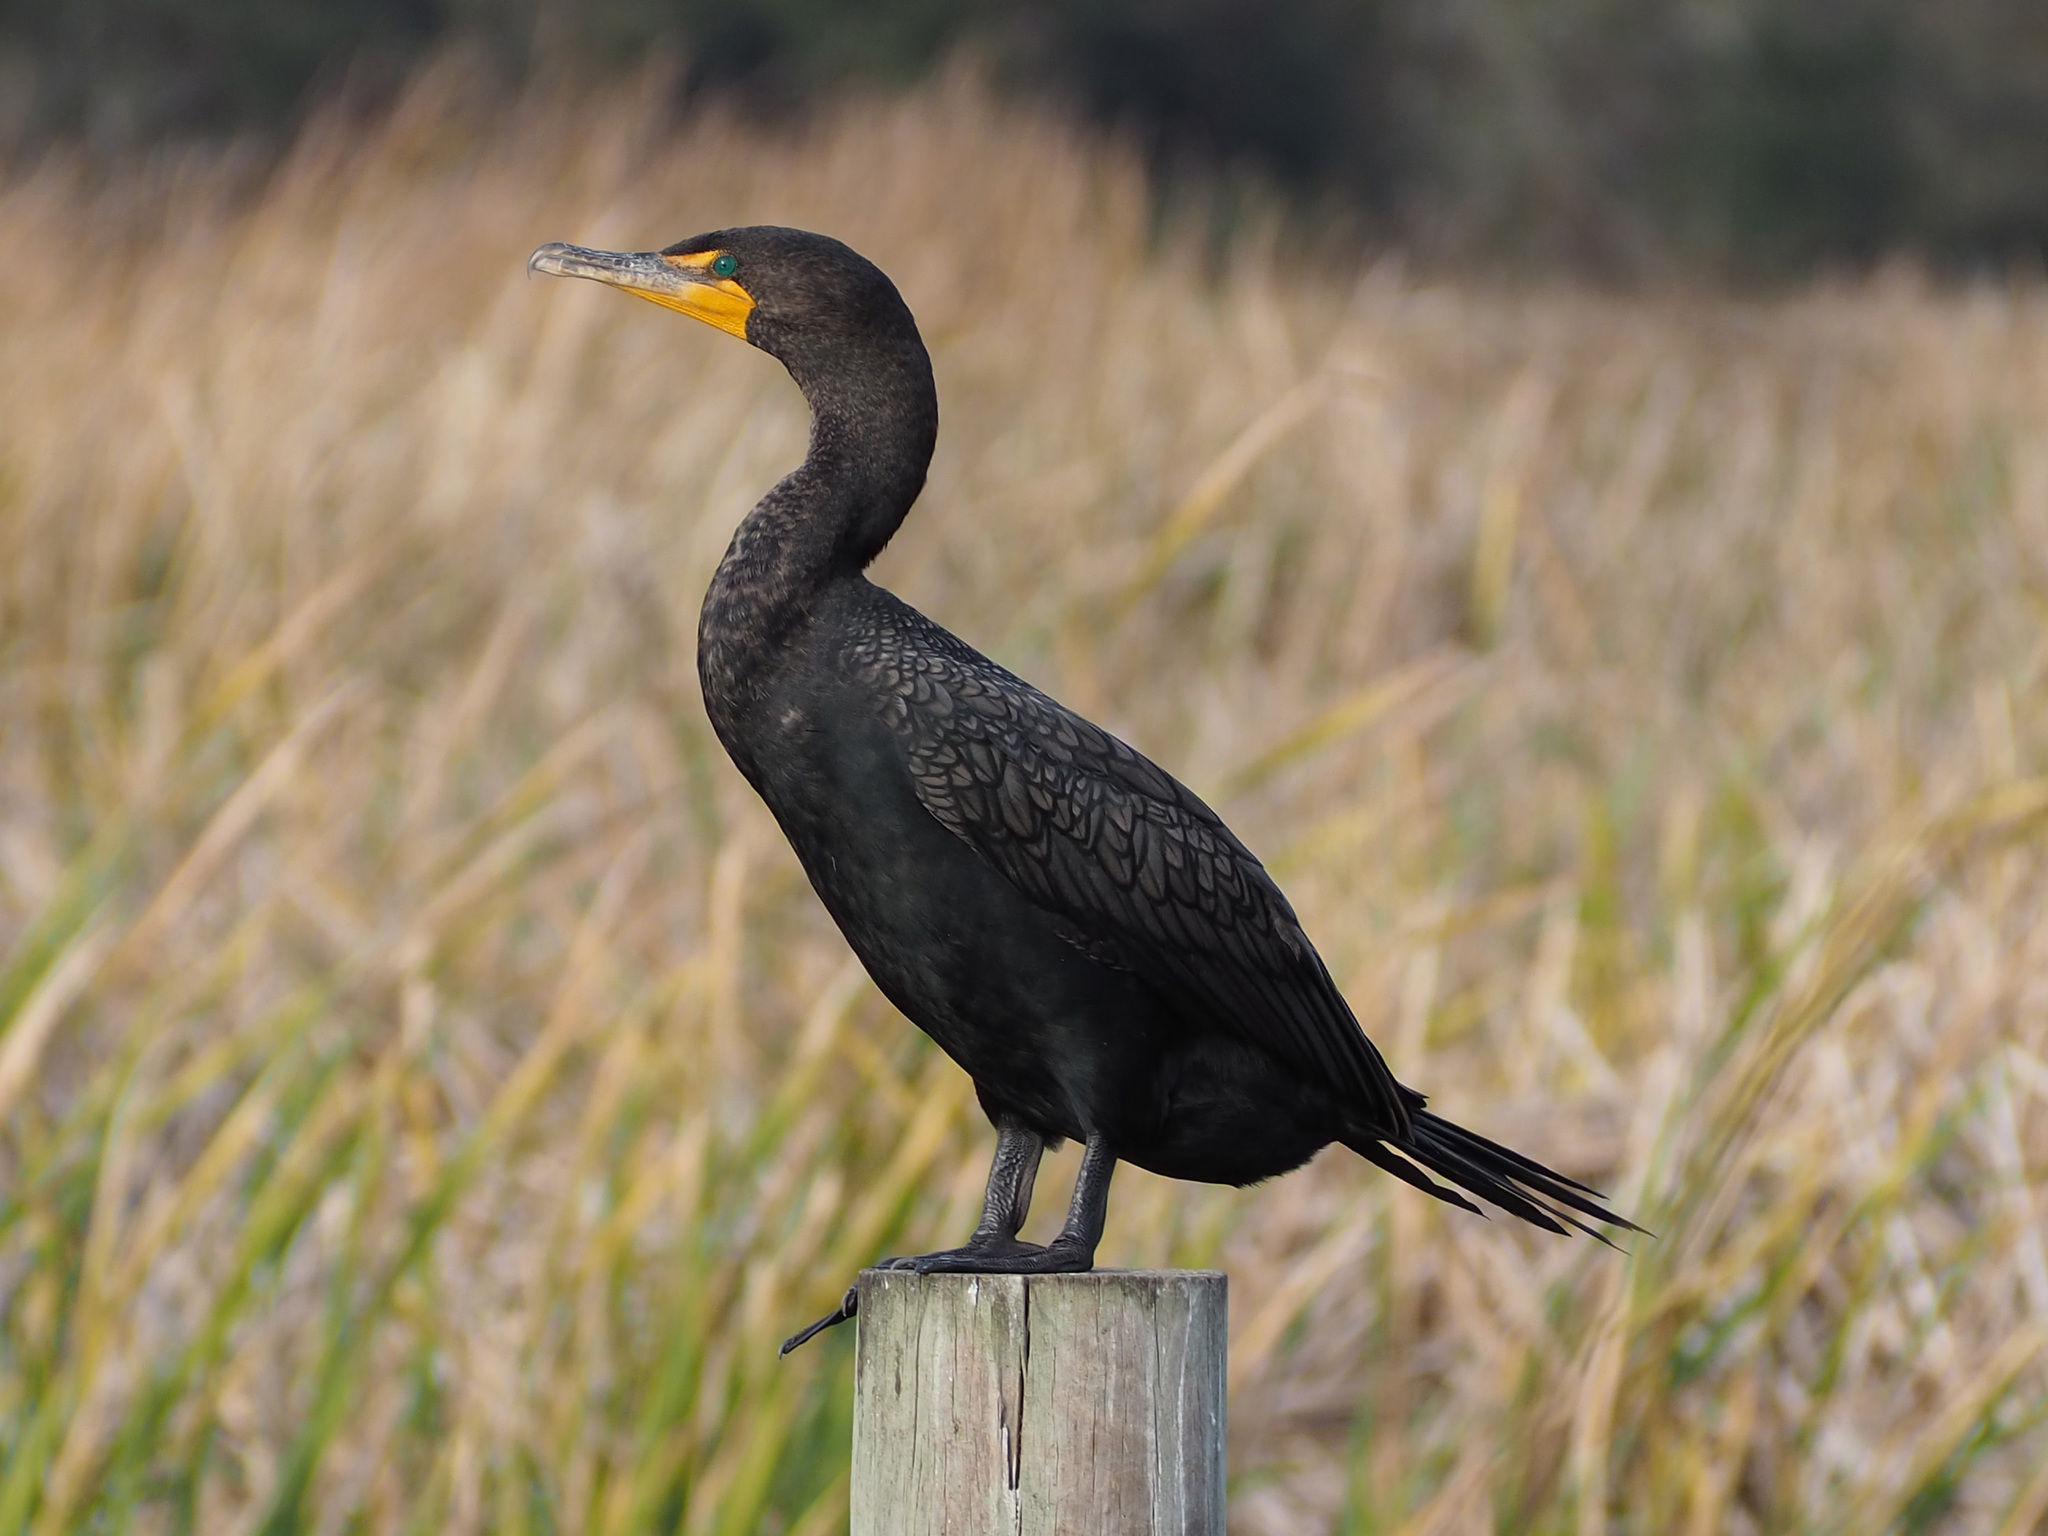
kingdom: Animalia
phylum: Chordata
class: Aves
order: Suliformes
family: Phalacrocoracidae
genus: Phalacrocorax
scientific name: Phalacrocorax auritus
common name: Double-crested cormorant
